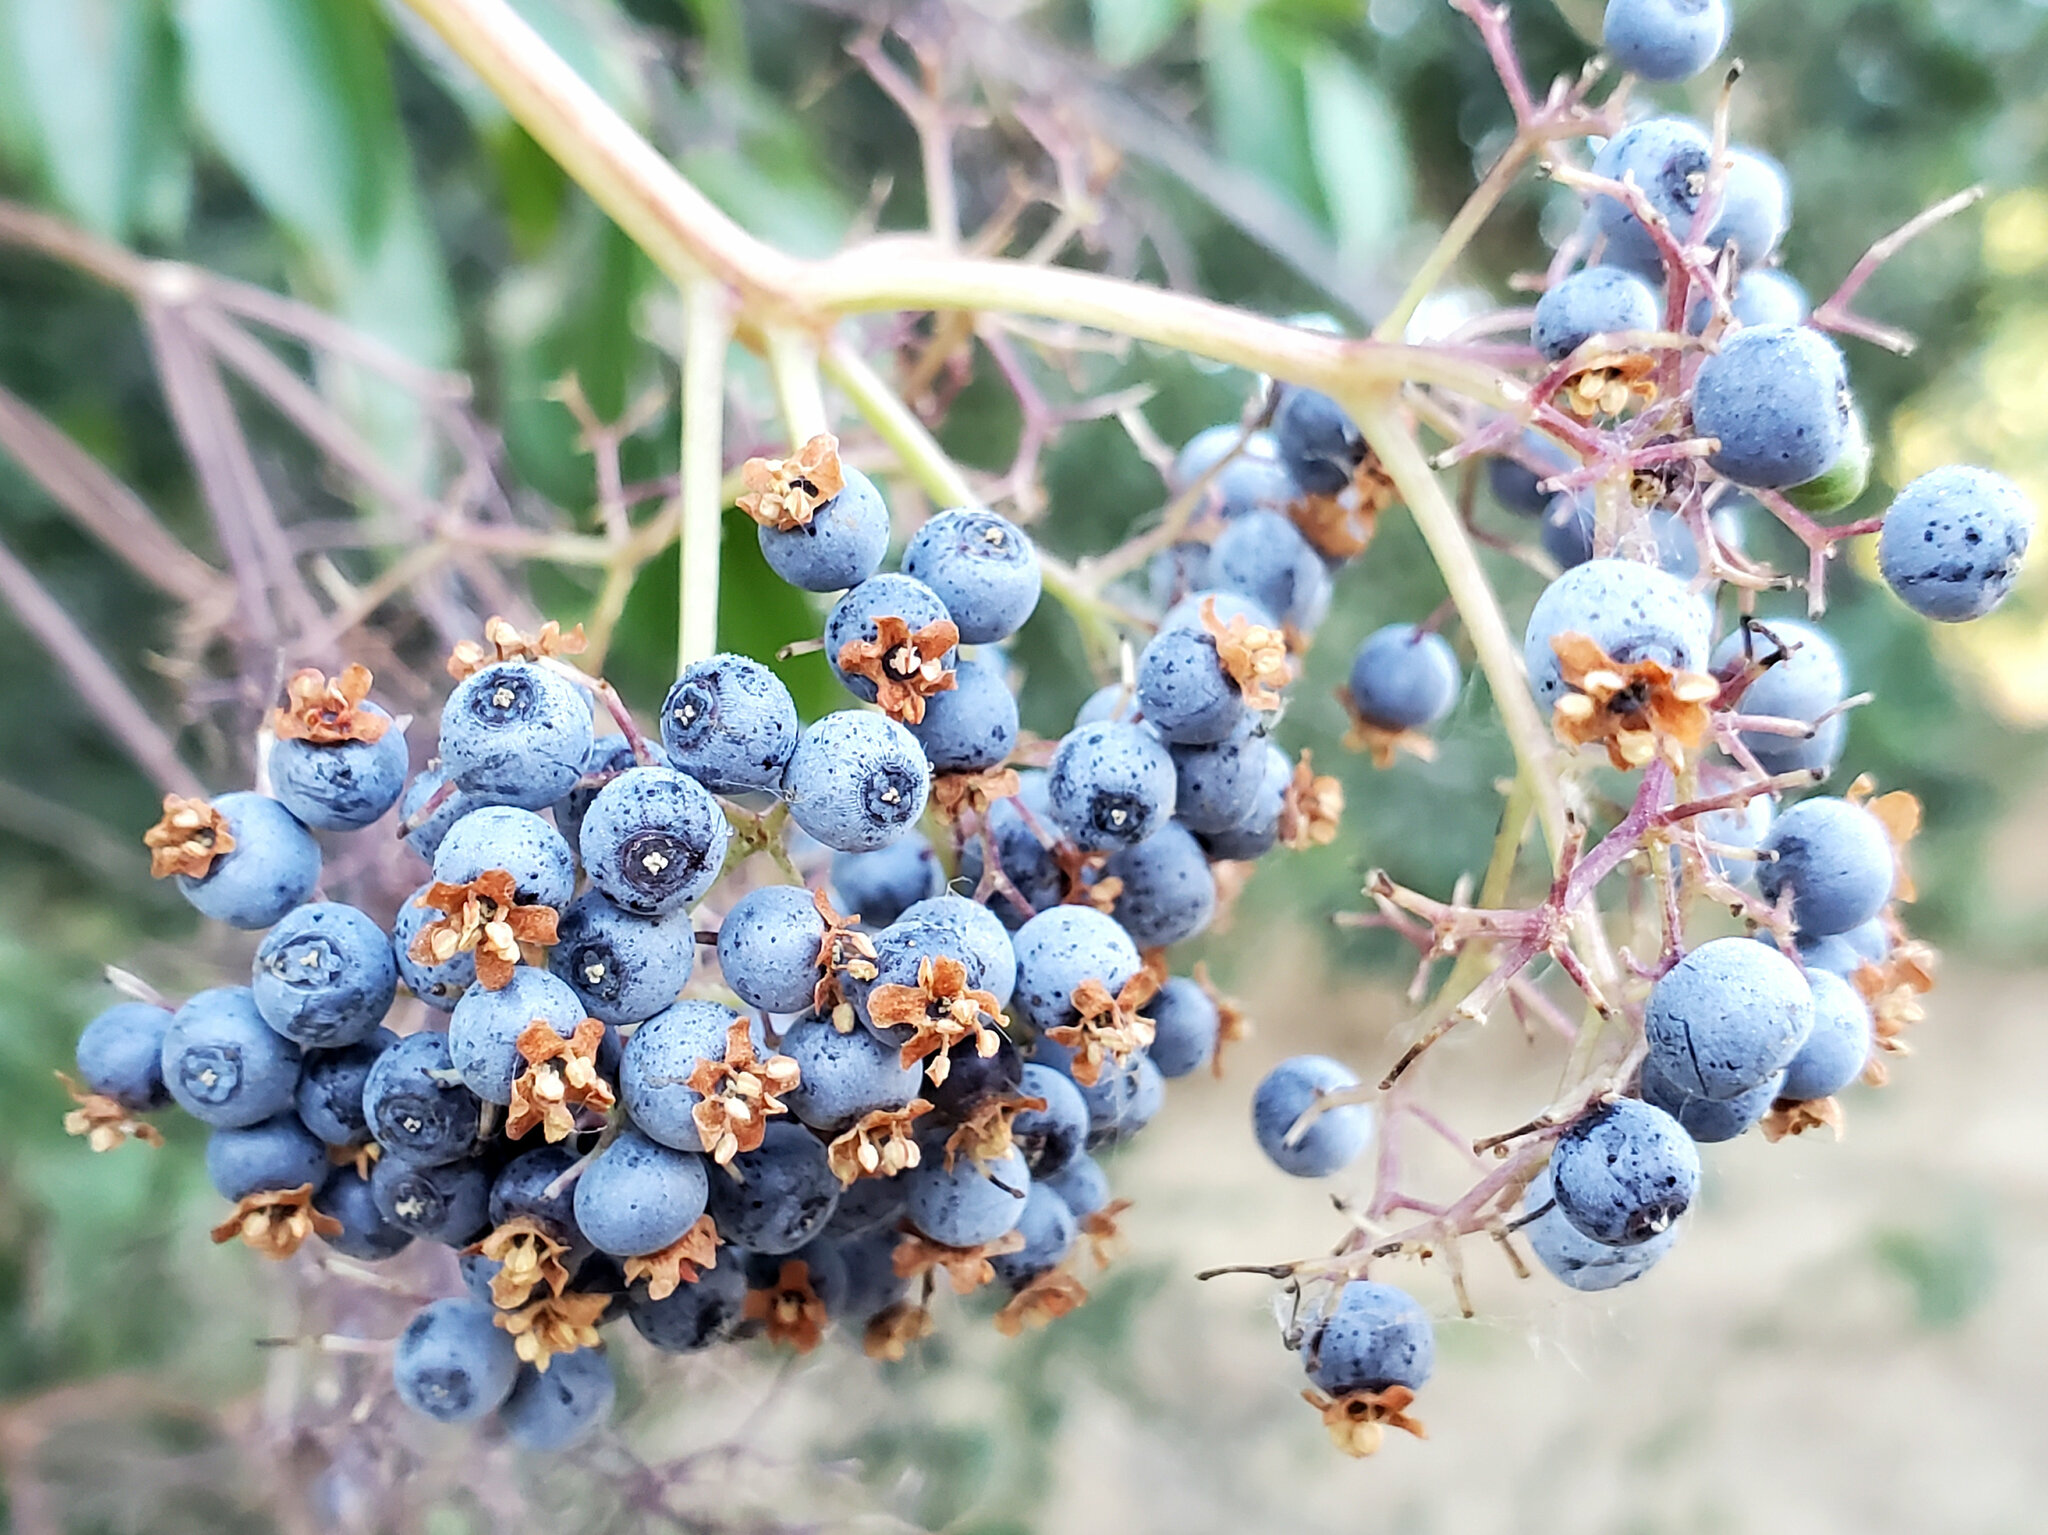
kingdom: Plantae
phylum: Tracheophyta
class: Magnoliopsida
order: Dipsacales
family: Viburnaceae
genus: Sambucus
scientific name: Sambucus cerulea
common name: Blue elder
